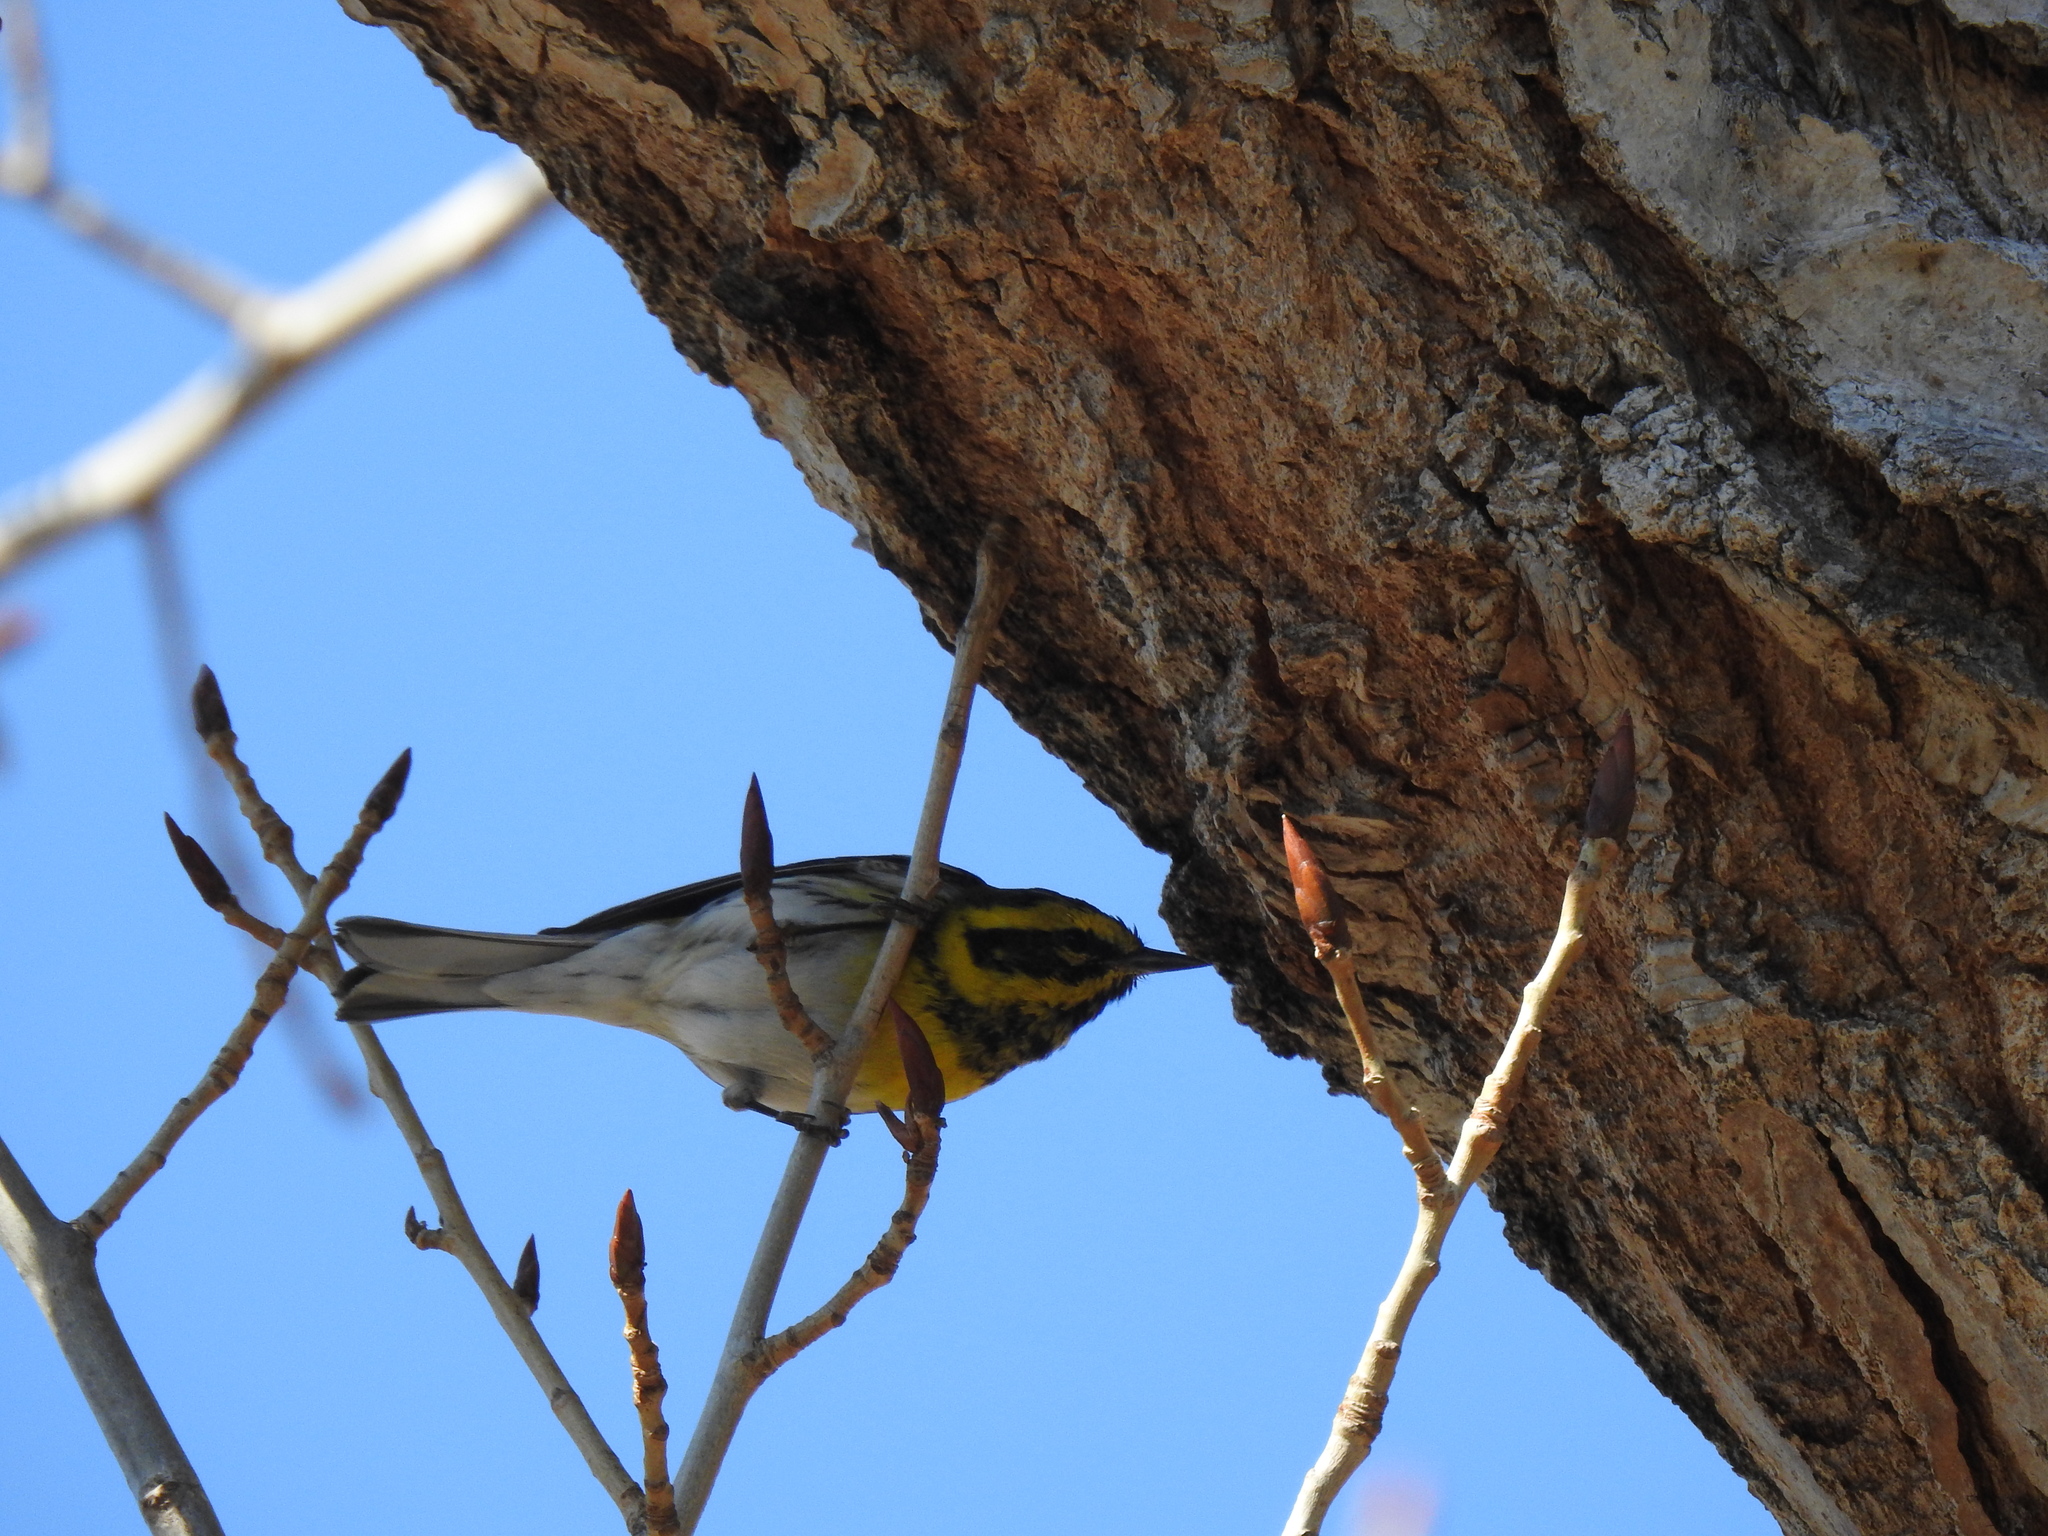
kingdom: Animalia
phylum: Chordata
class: Aves
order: Passeriformes
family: Parulidae
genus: Setophaga
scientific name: Setophaga townsendi
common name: Townsend's warbler
